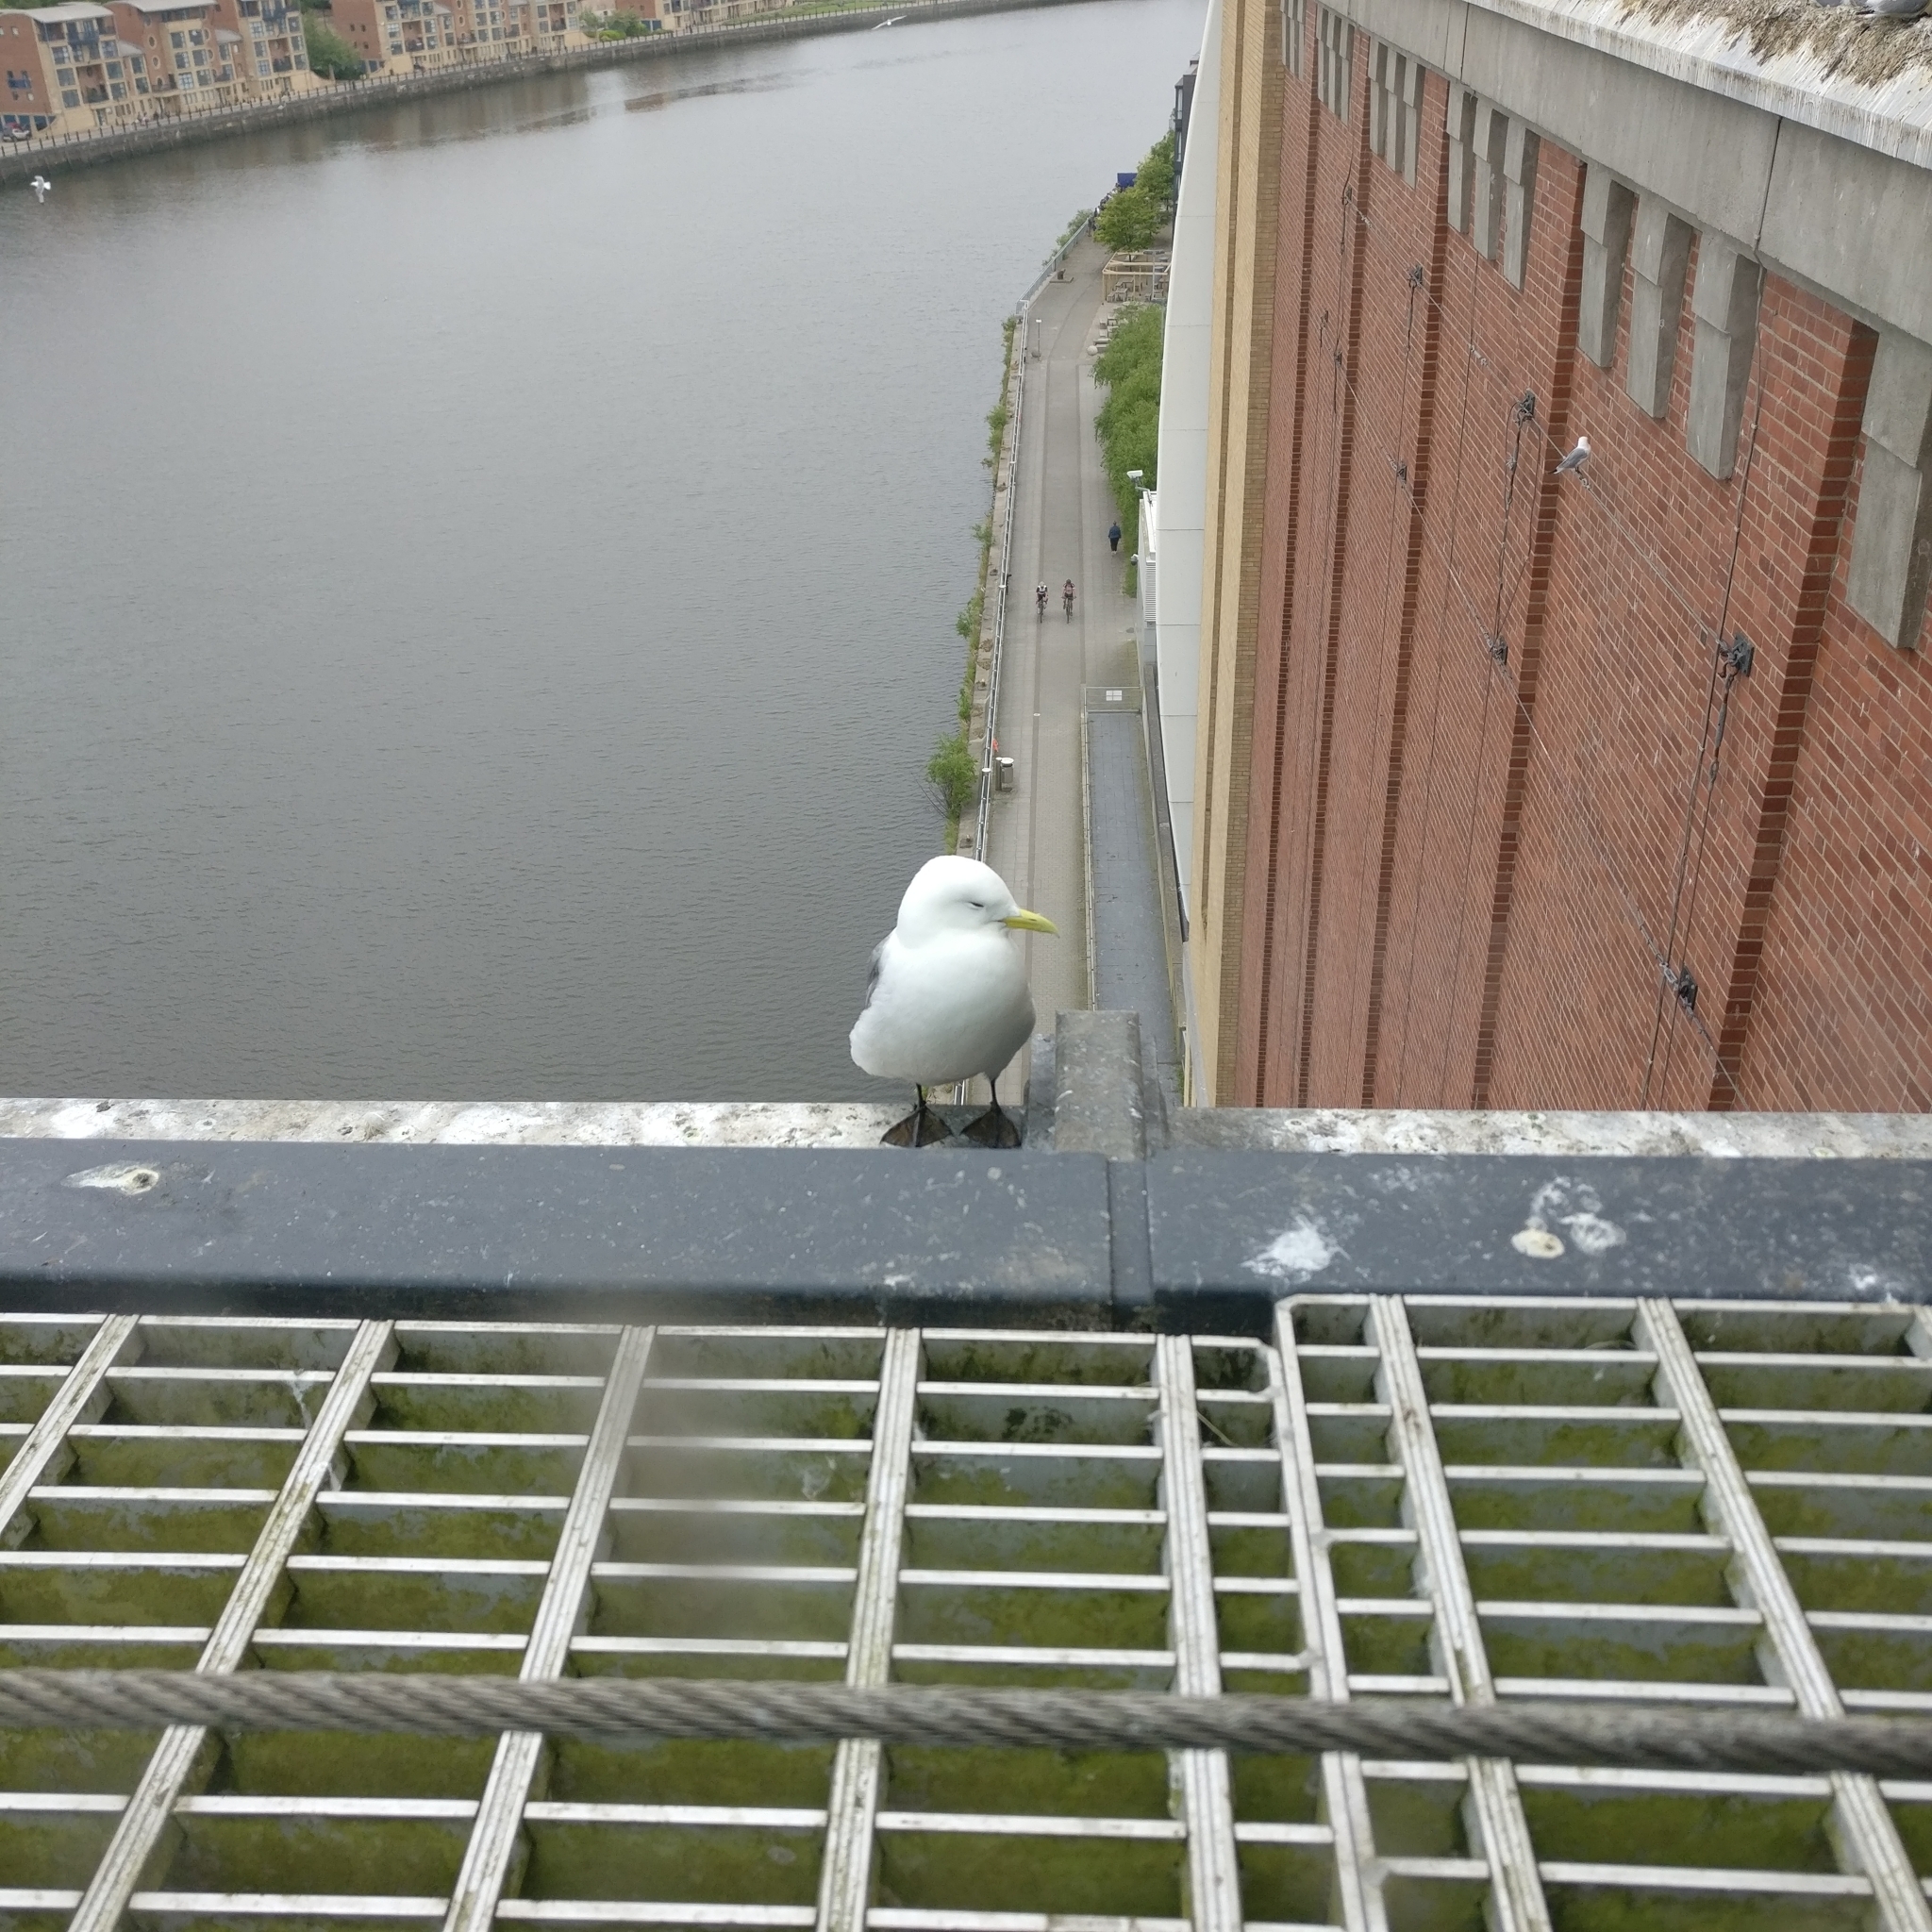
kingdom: Animalia
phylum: Chordata
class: Aves
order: Charadriiformes
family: Laridae
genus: Rissa
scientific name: Rissa tridactyla
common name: Black-legged kittiwake
